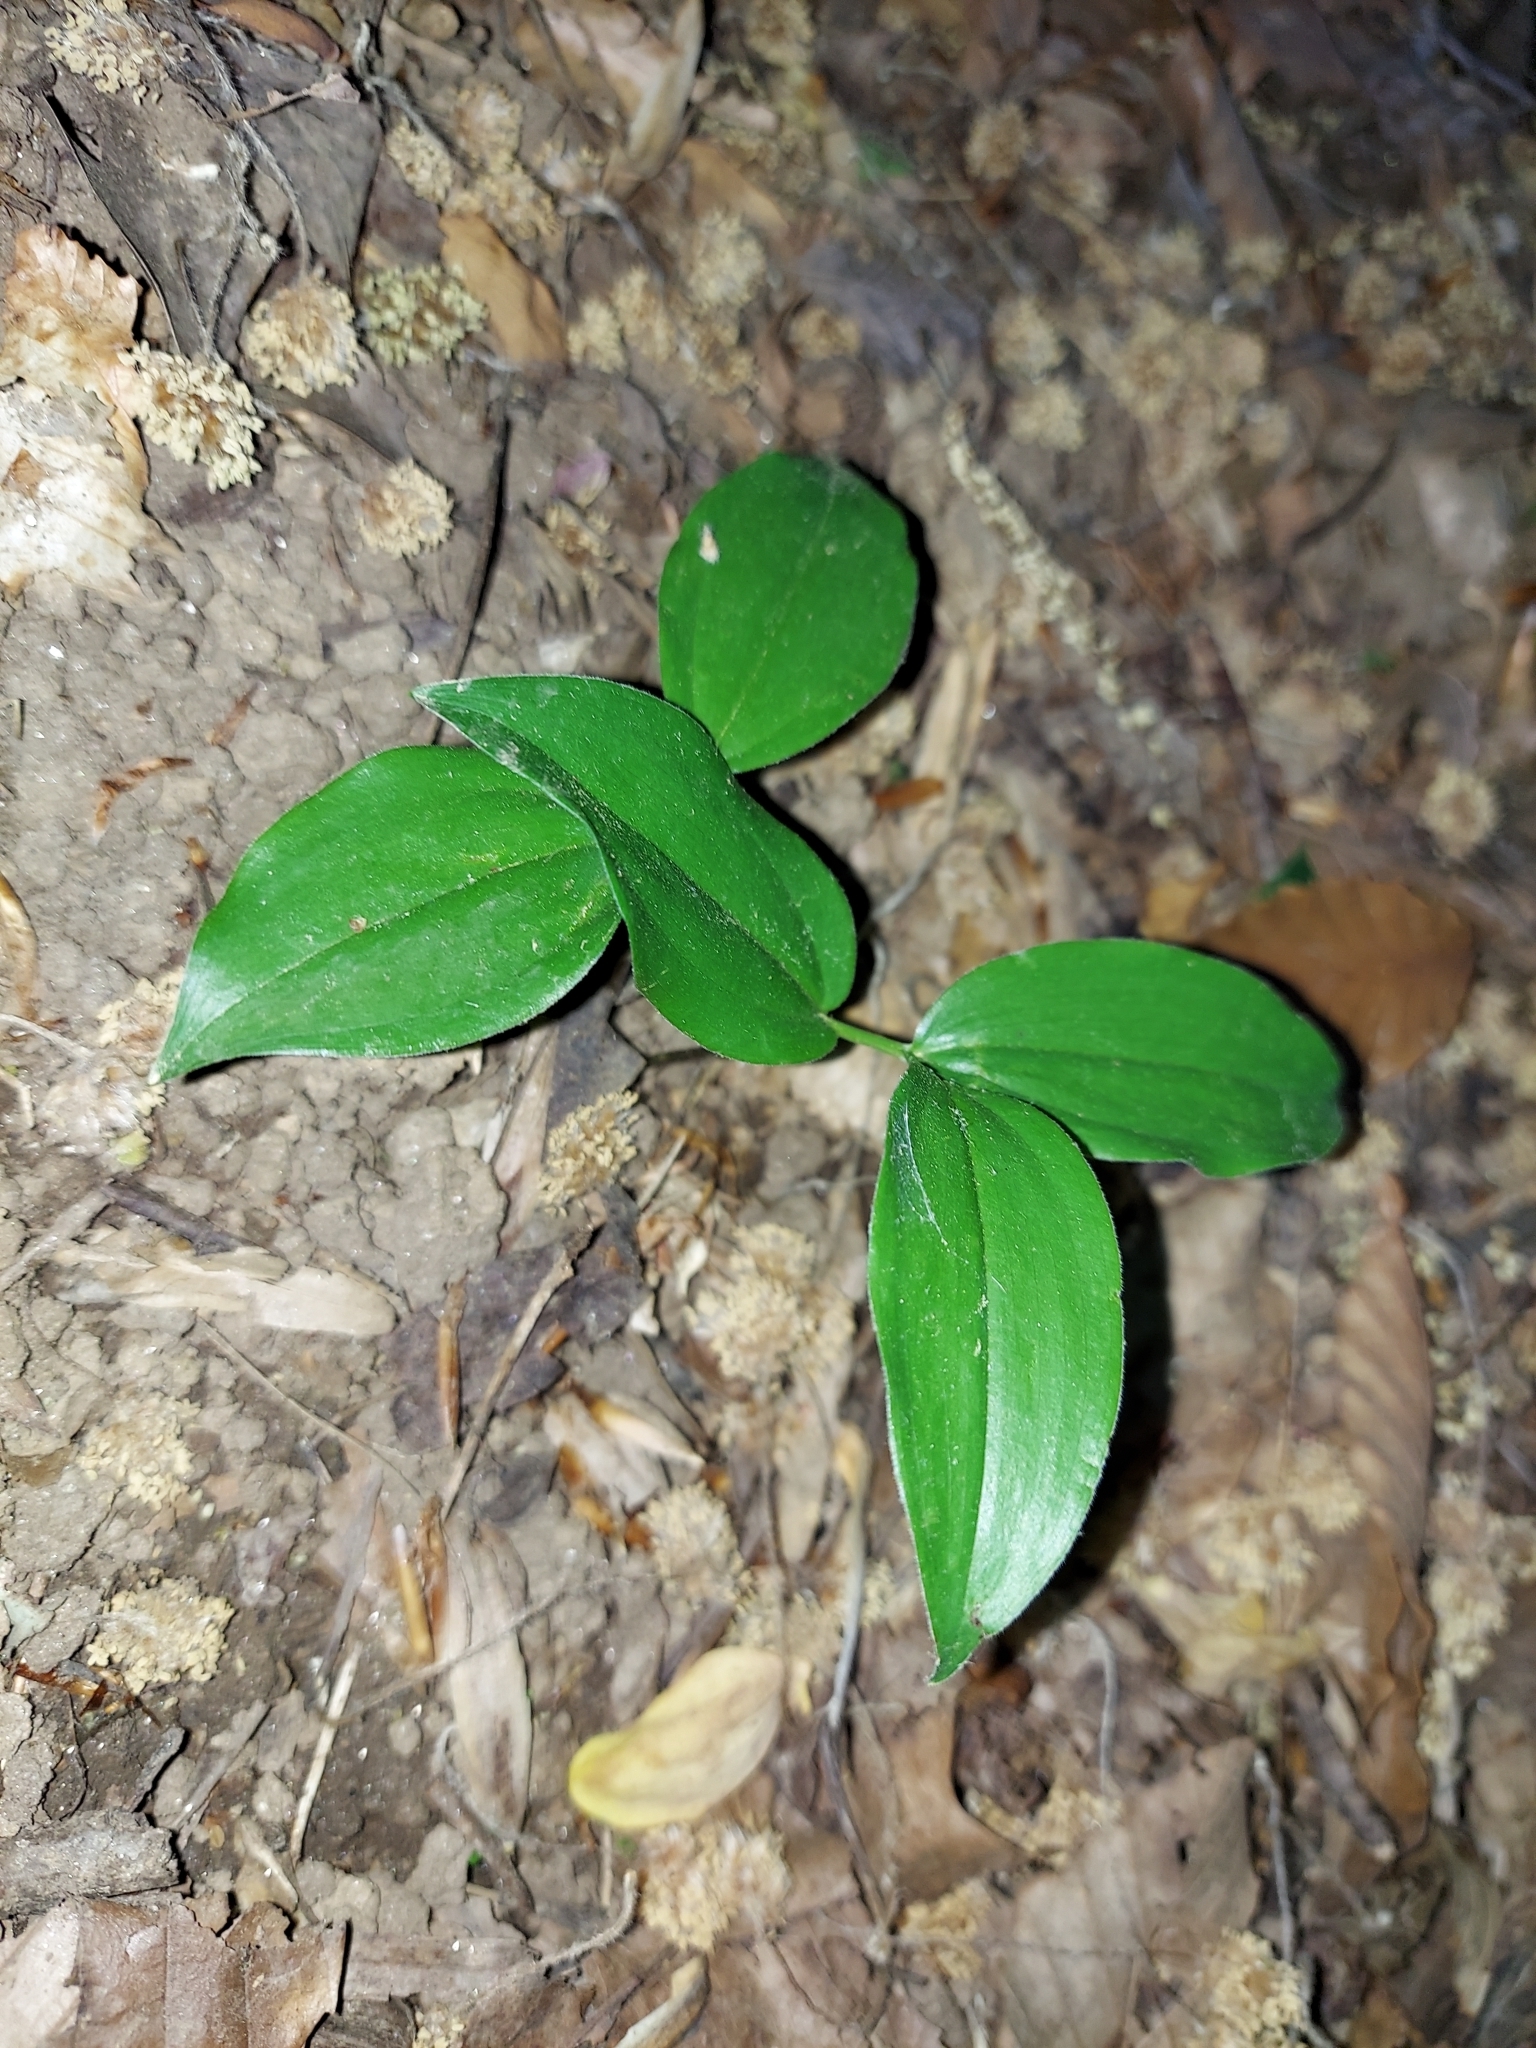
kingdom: Plantae
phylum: Tracheophyta
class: Liliopsida
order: Asparagales
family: Asparagaceae
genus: Maianthemum
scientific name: Maianthemum racemosum
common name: False spikenard
